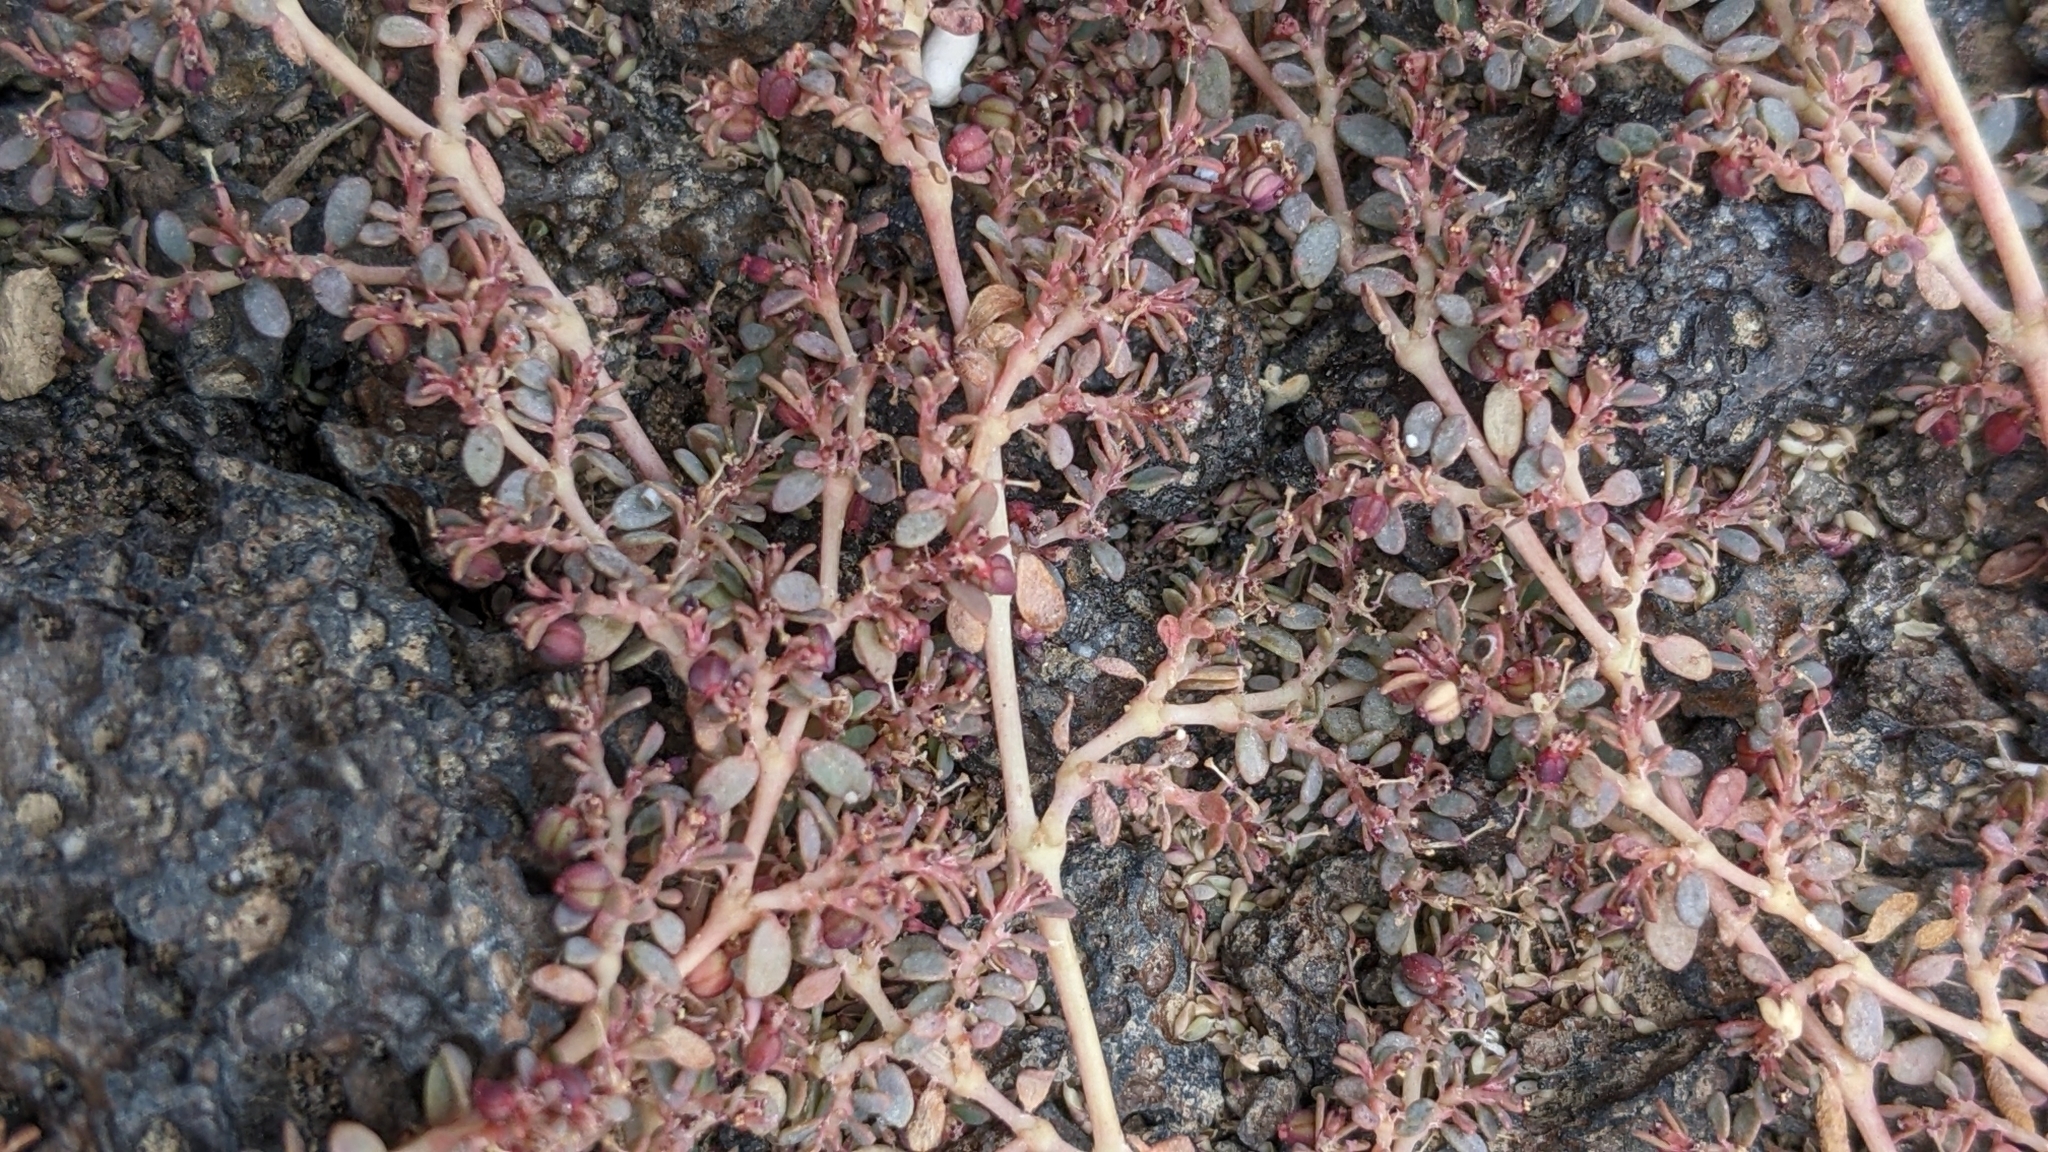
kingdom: Plantae
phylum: Tracheophyta
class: Magnoliopsida
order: Malpighiales
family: Euphorbiaceae
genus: Euphorbia
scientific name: Euphorbia micromera
